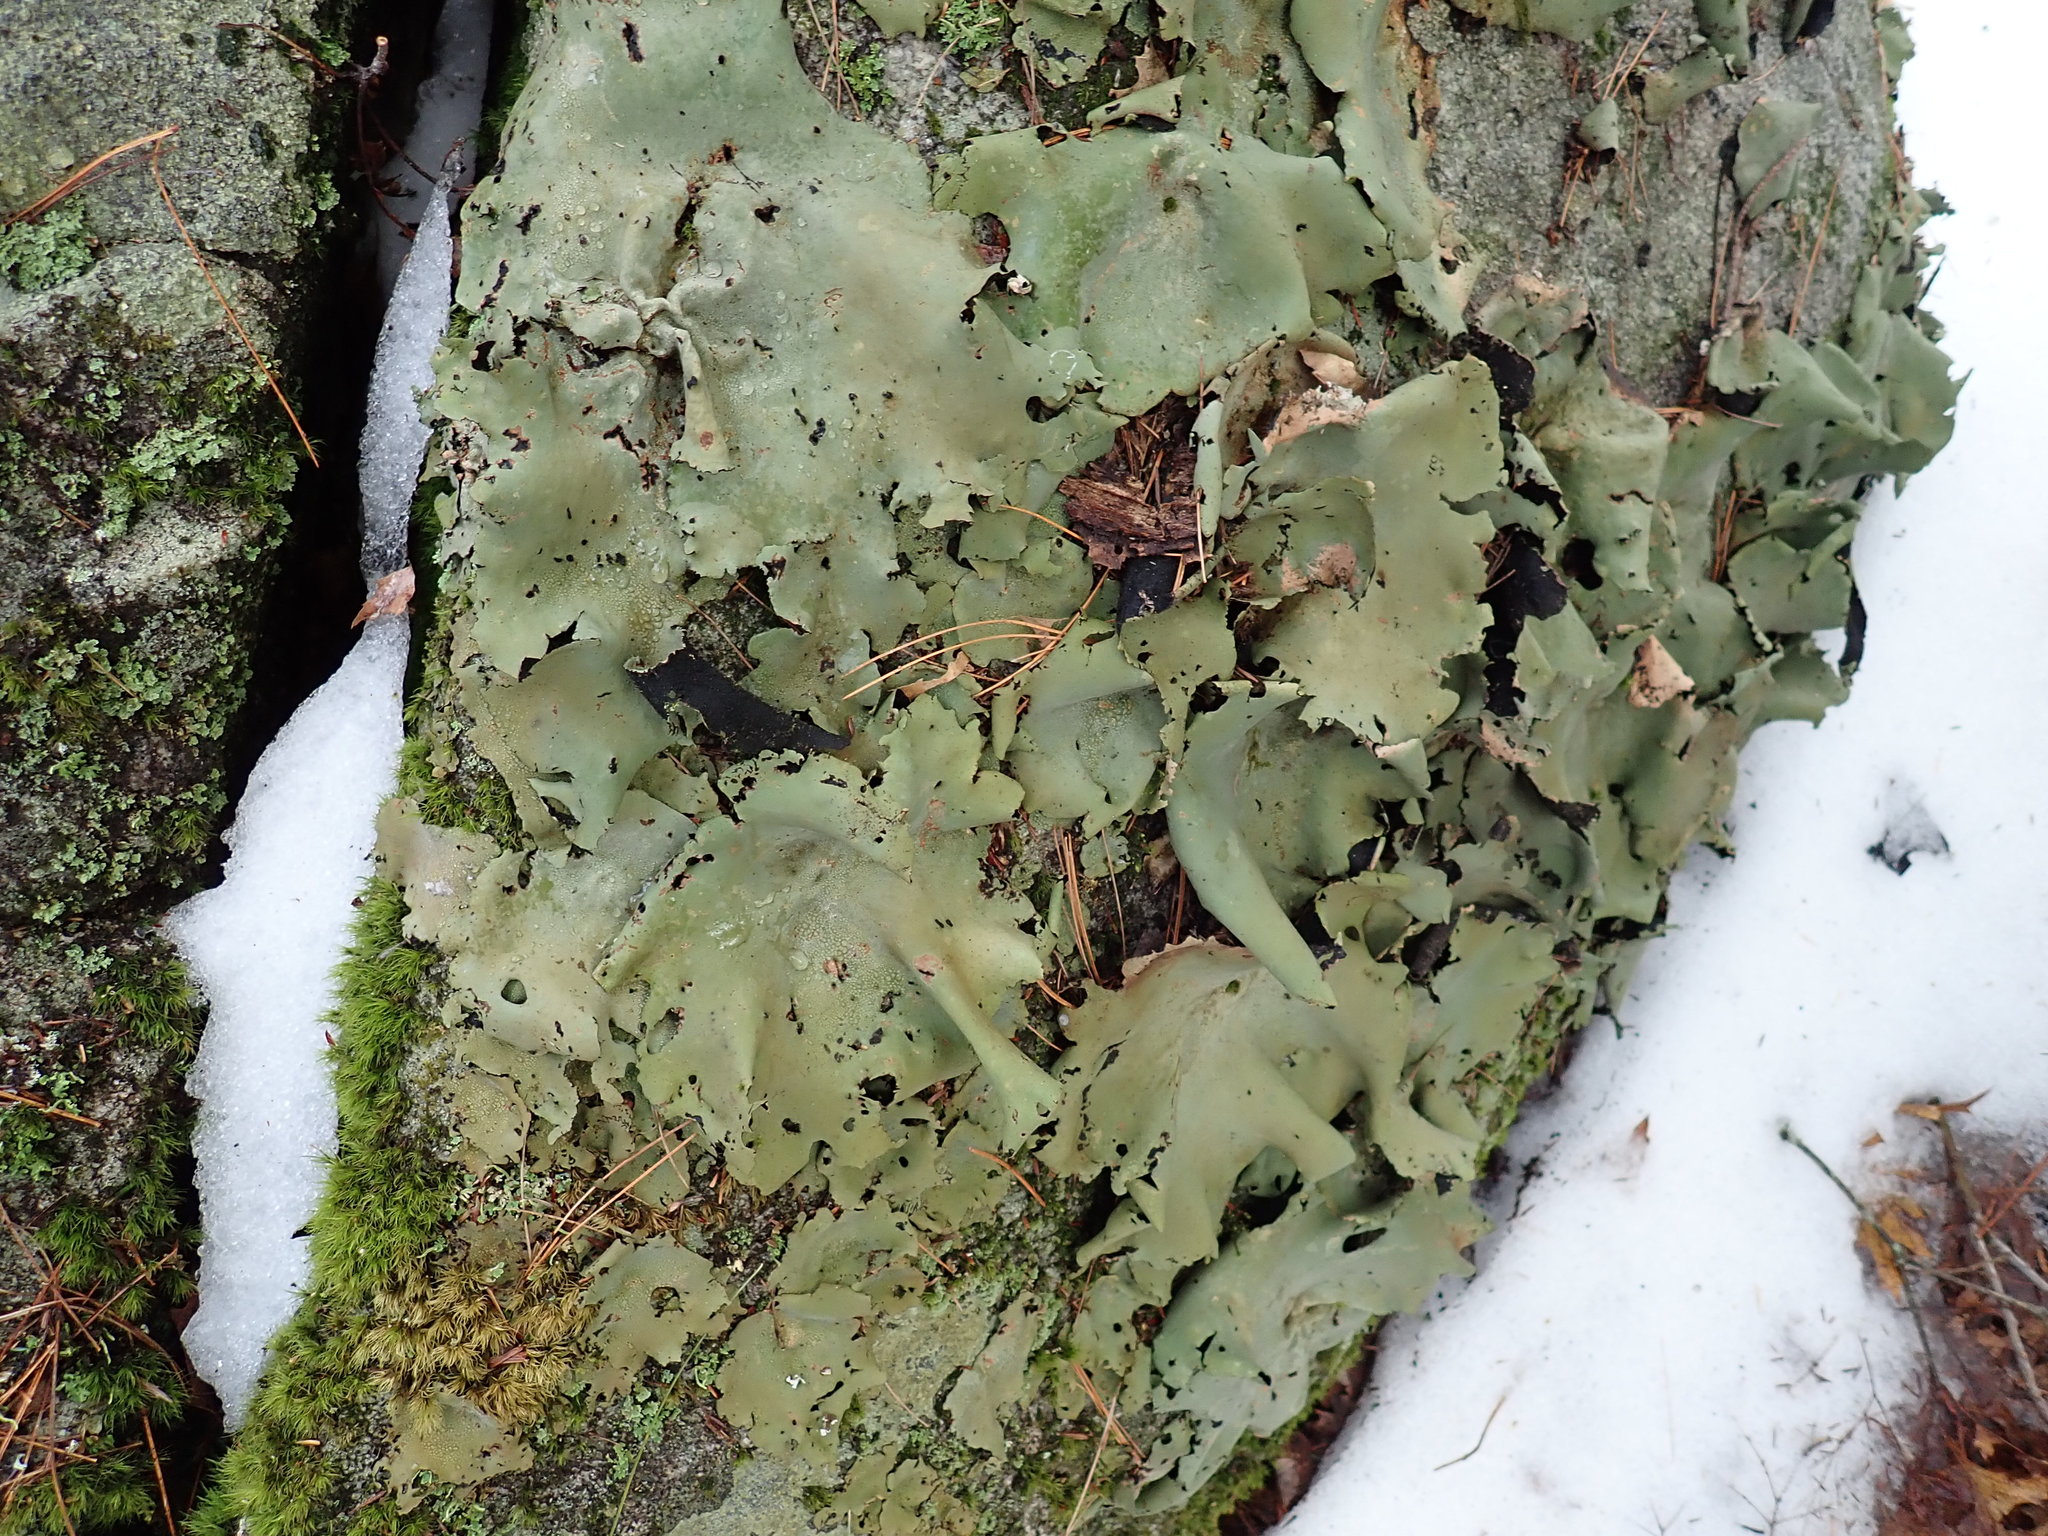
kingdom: Fungi
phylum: Ascomycota
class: Lecanoromycetes
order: Umbilicariales
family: Umbilicariaceae
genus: Umbilicaria
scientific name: Umbilicaria mammulata
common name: Smooth rock tripe
